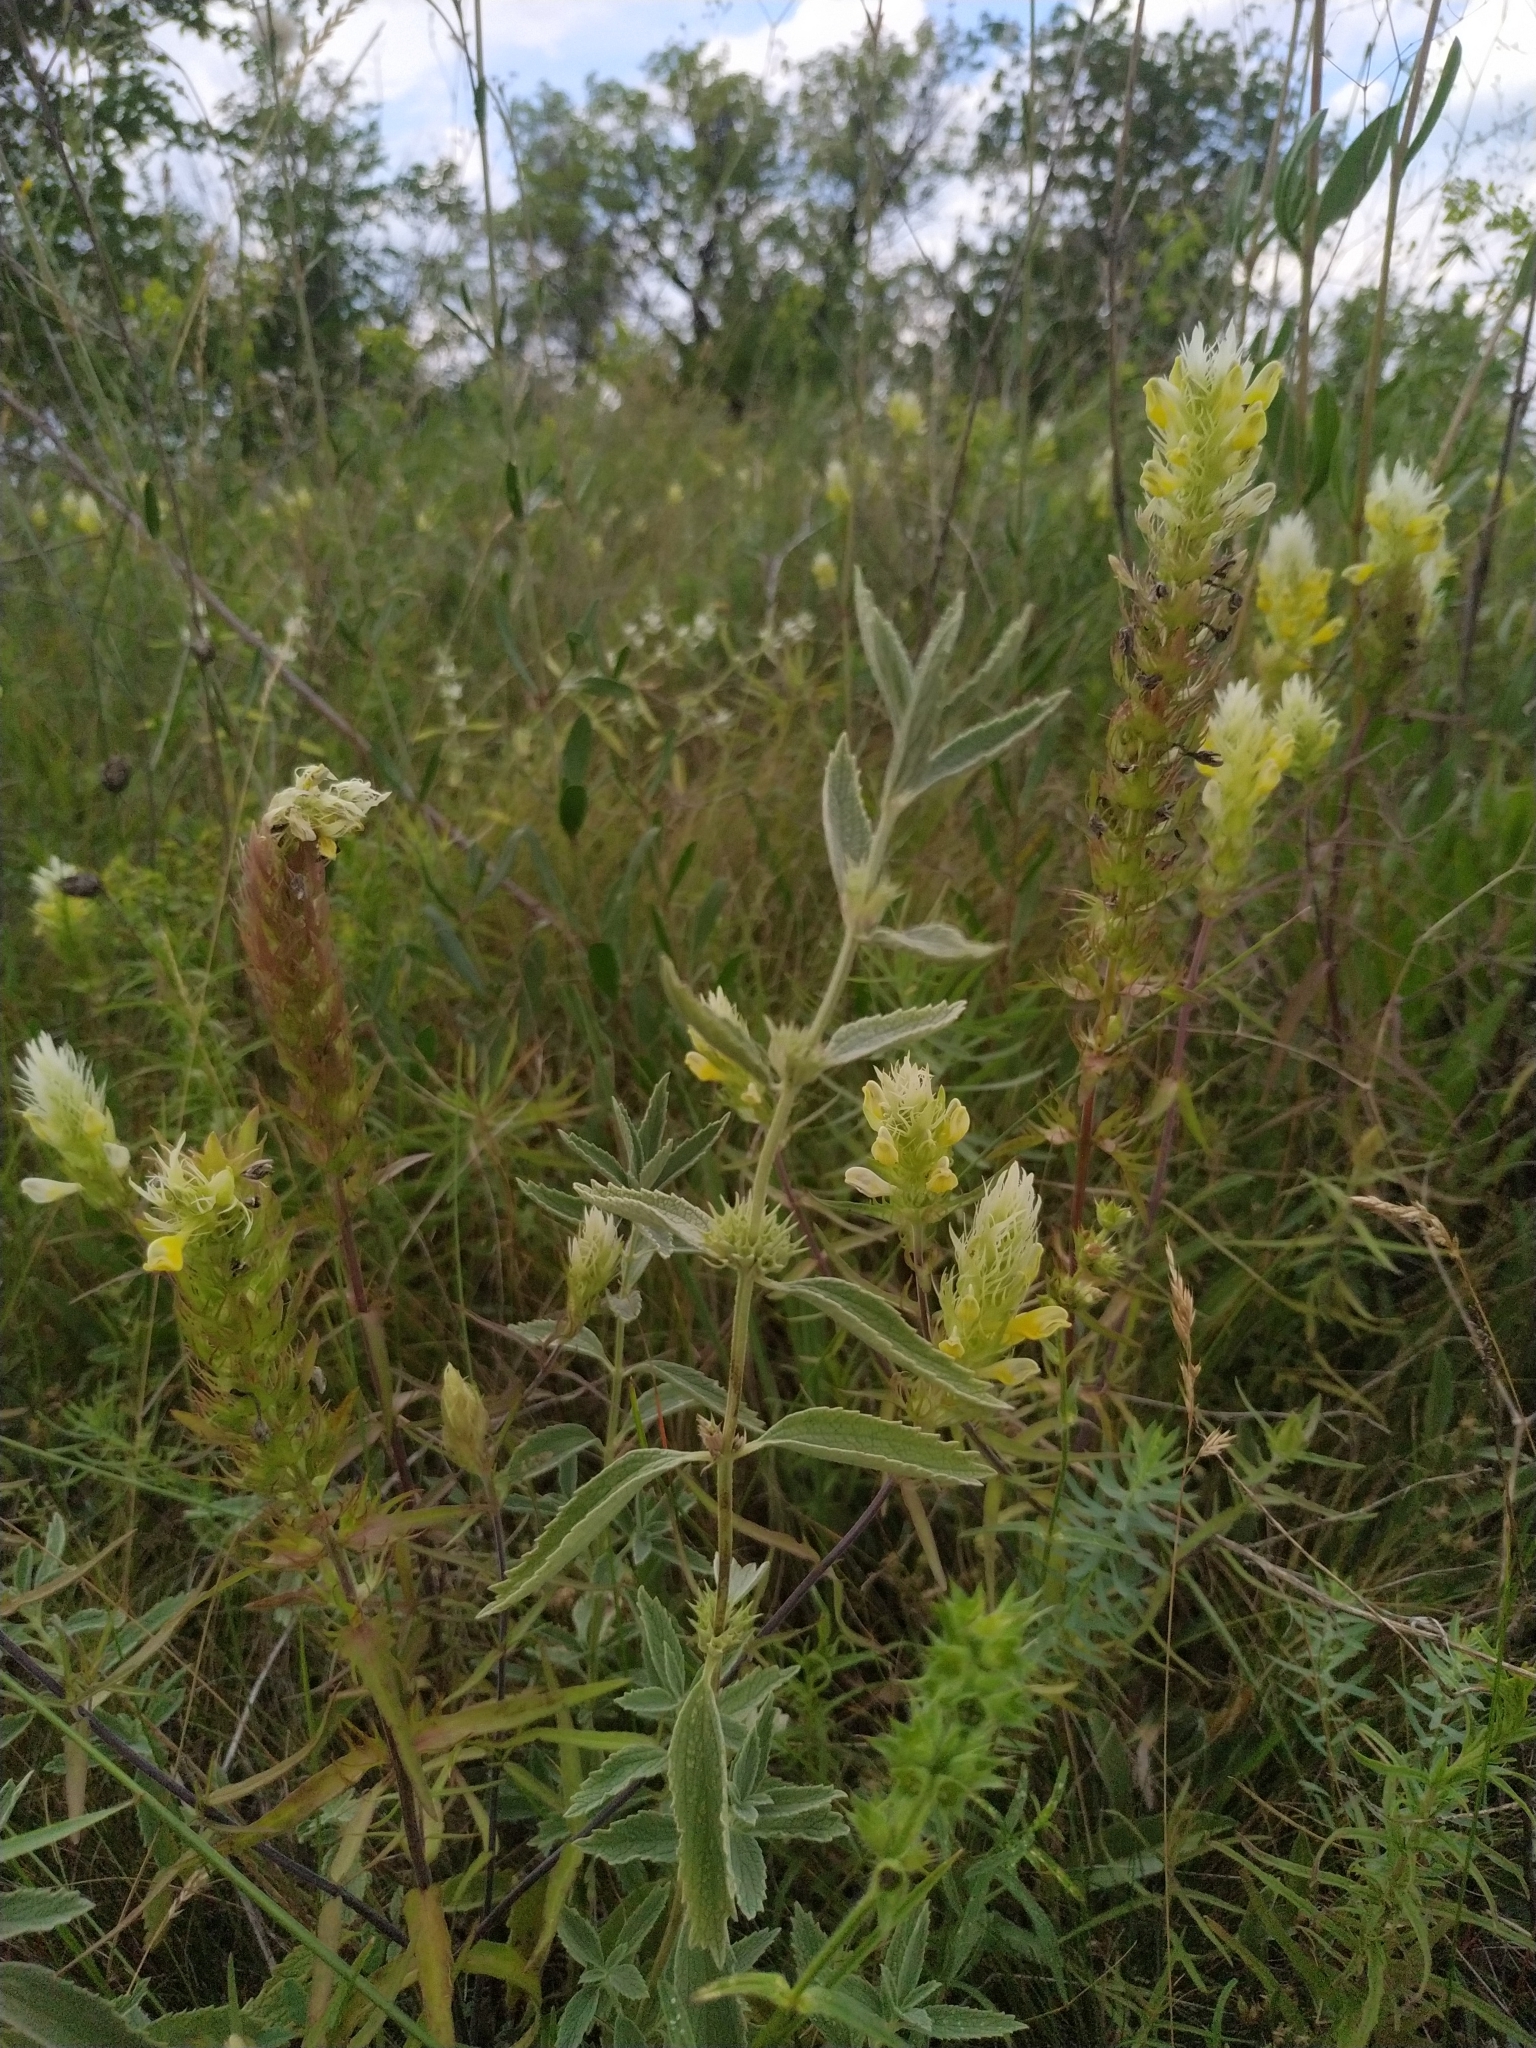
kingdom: Plantae
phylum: Tracheophyta
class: Magnoliopsida
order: Lamiales
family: Orobanchaceae
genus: Melampyrum
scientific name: Melampyrum arvense
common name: Field cow-wheat
